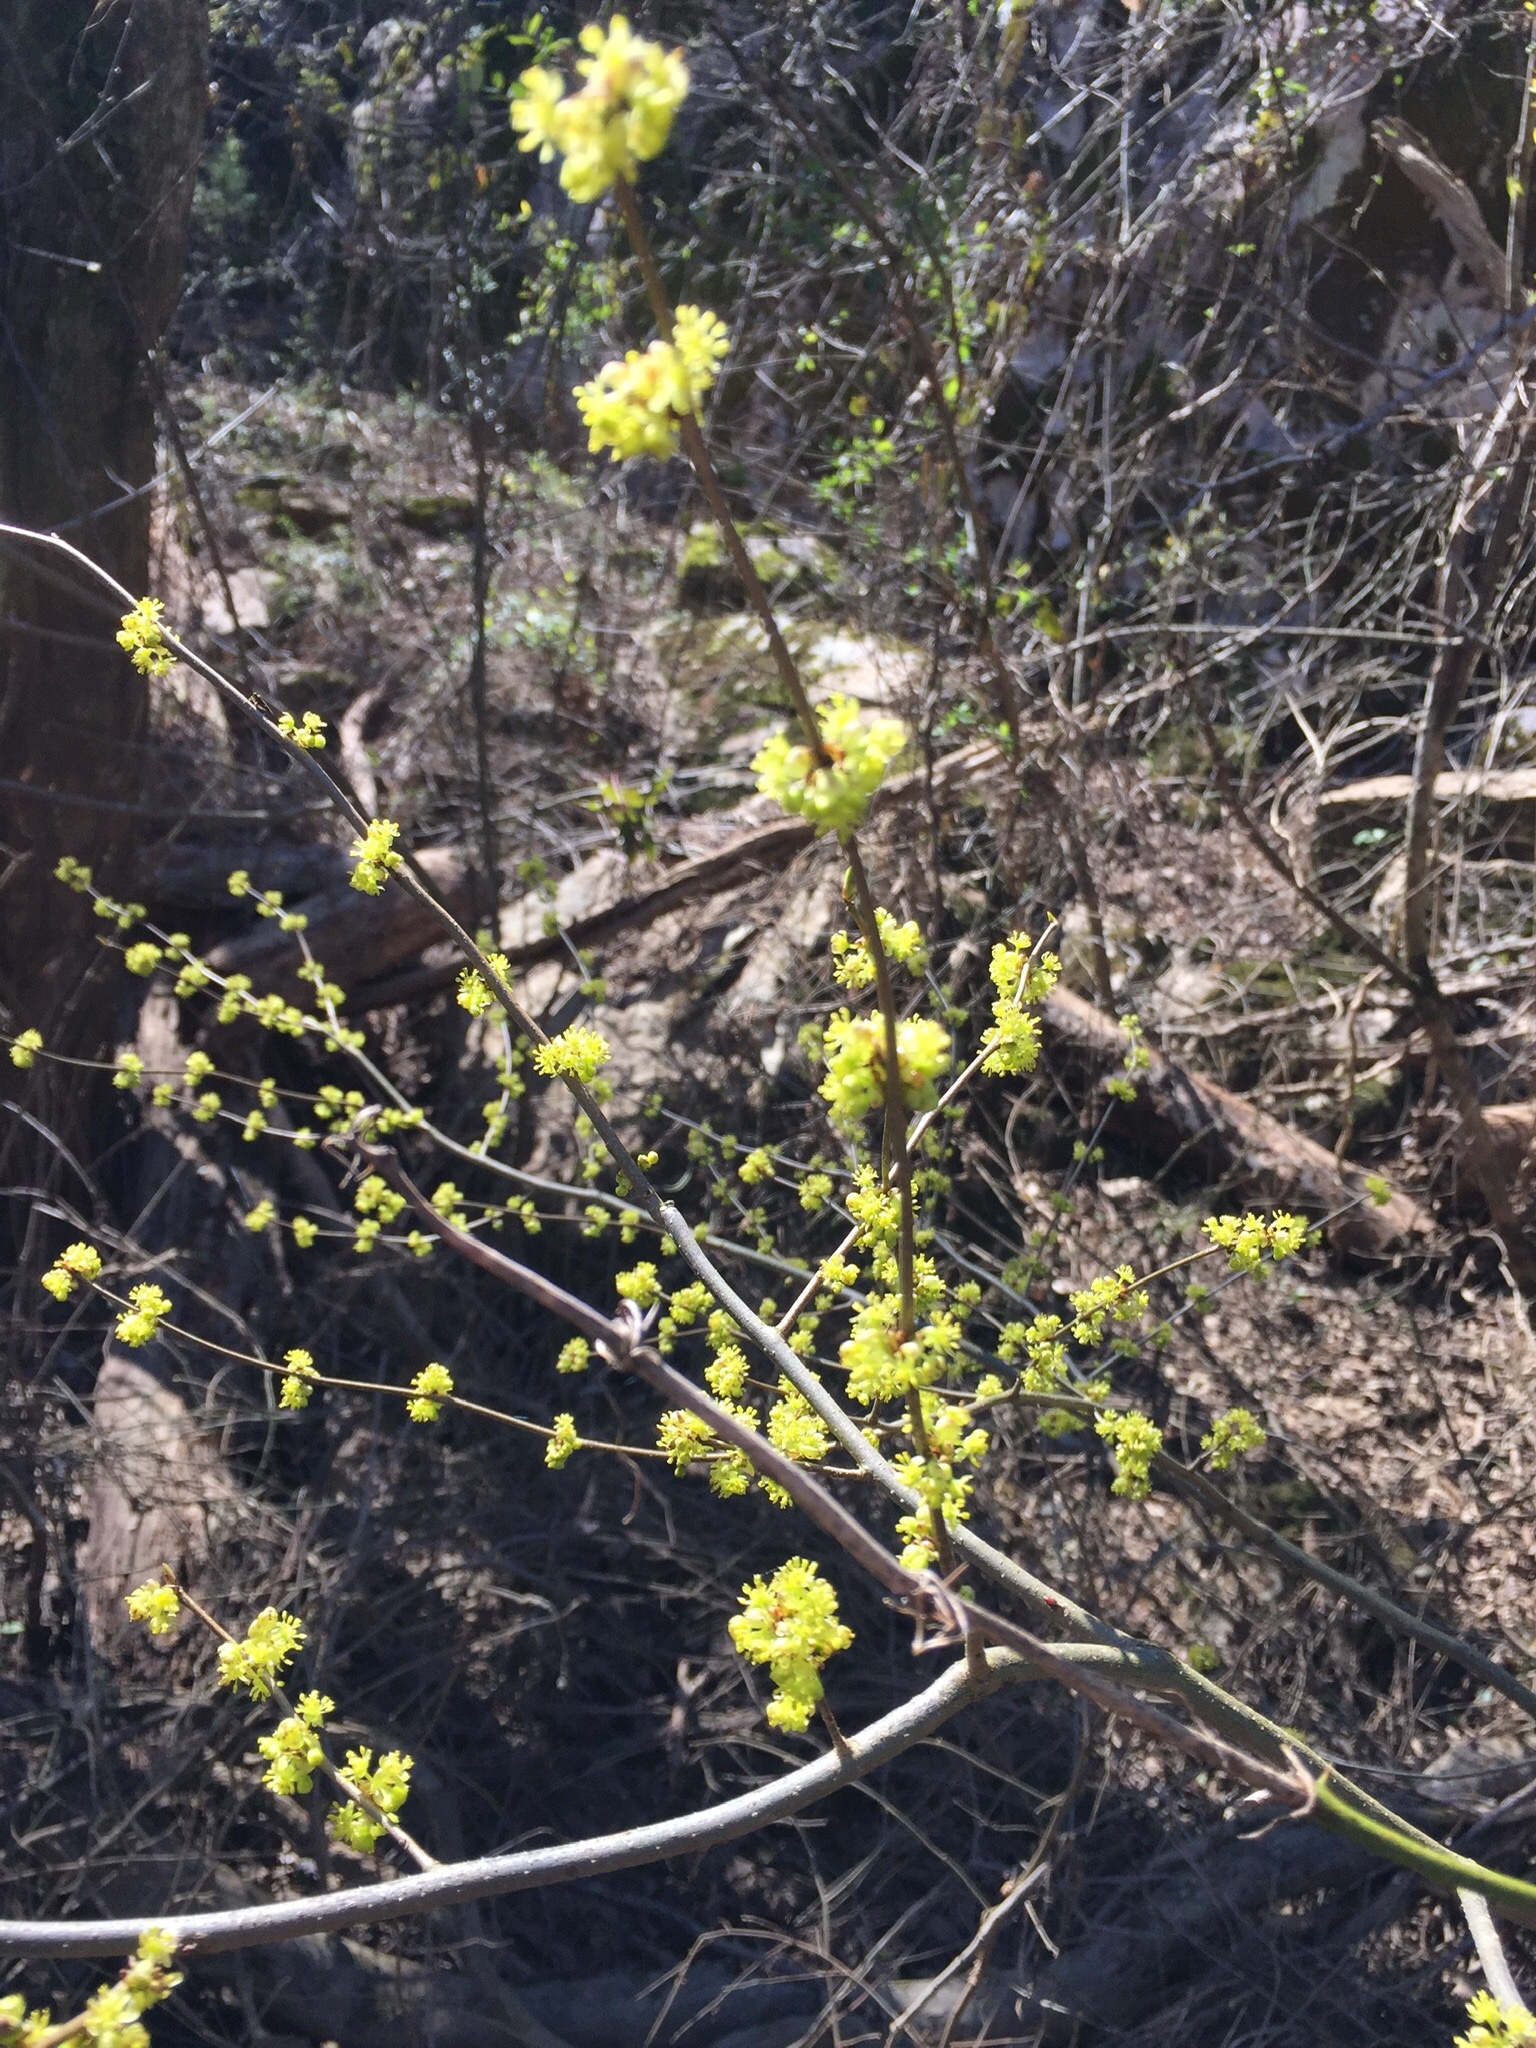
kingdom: Plantae
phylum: Tracheophyta
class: Magnoliopsida
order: Laurales
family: Lauraceae
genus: Lindera
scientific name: Lindera benzoin
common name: Spicebush
